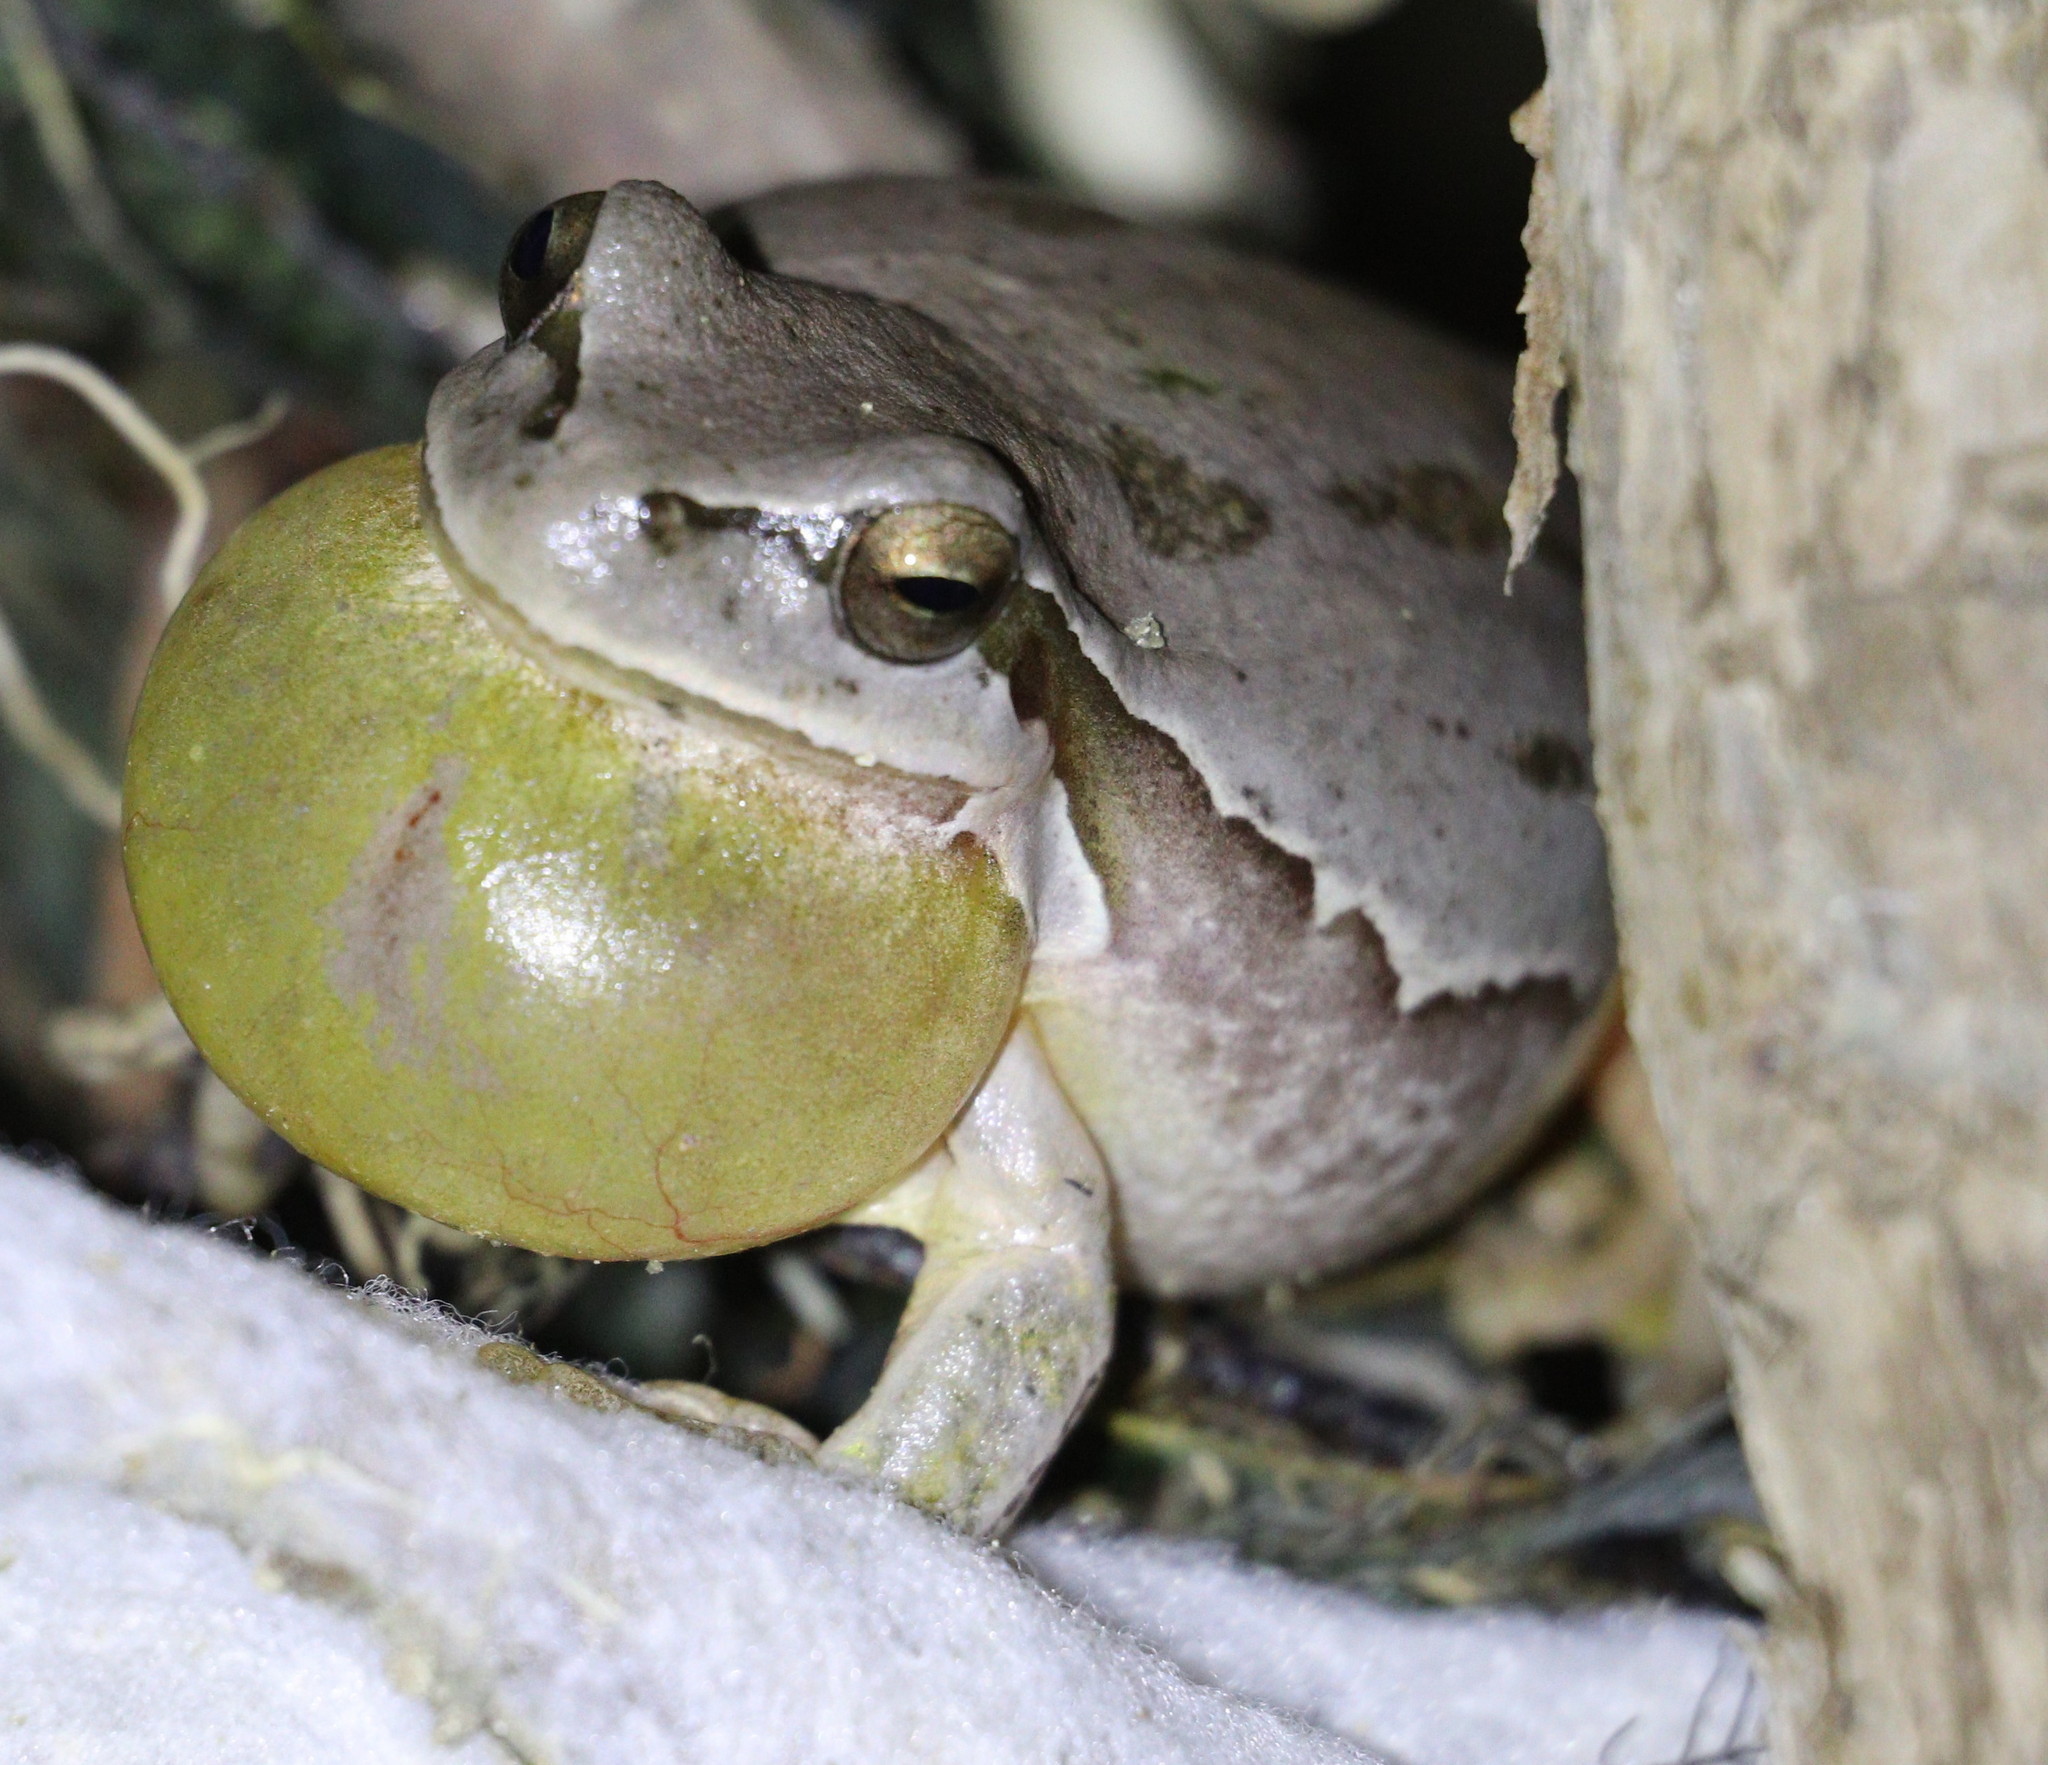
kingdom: Animalia
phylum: Chordata
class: Amphibia
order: Anura
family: Hylidae
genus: Hyla
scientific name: Hyla savignyi
